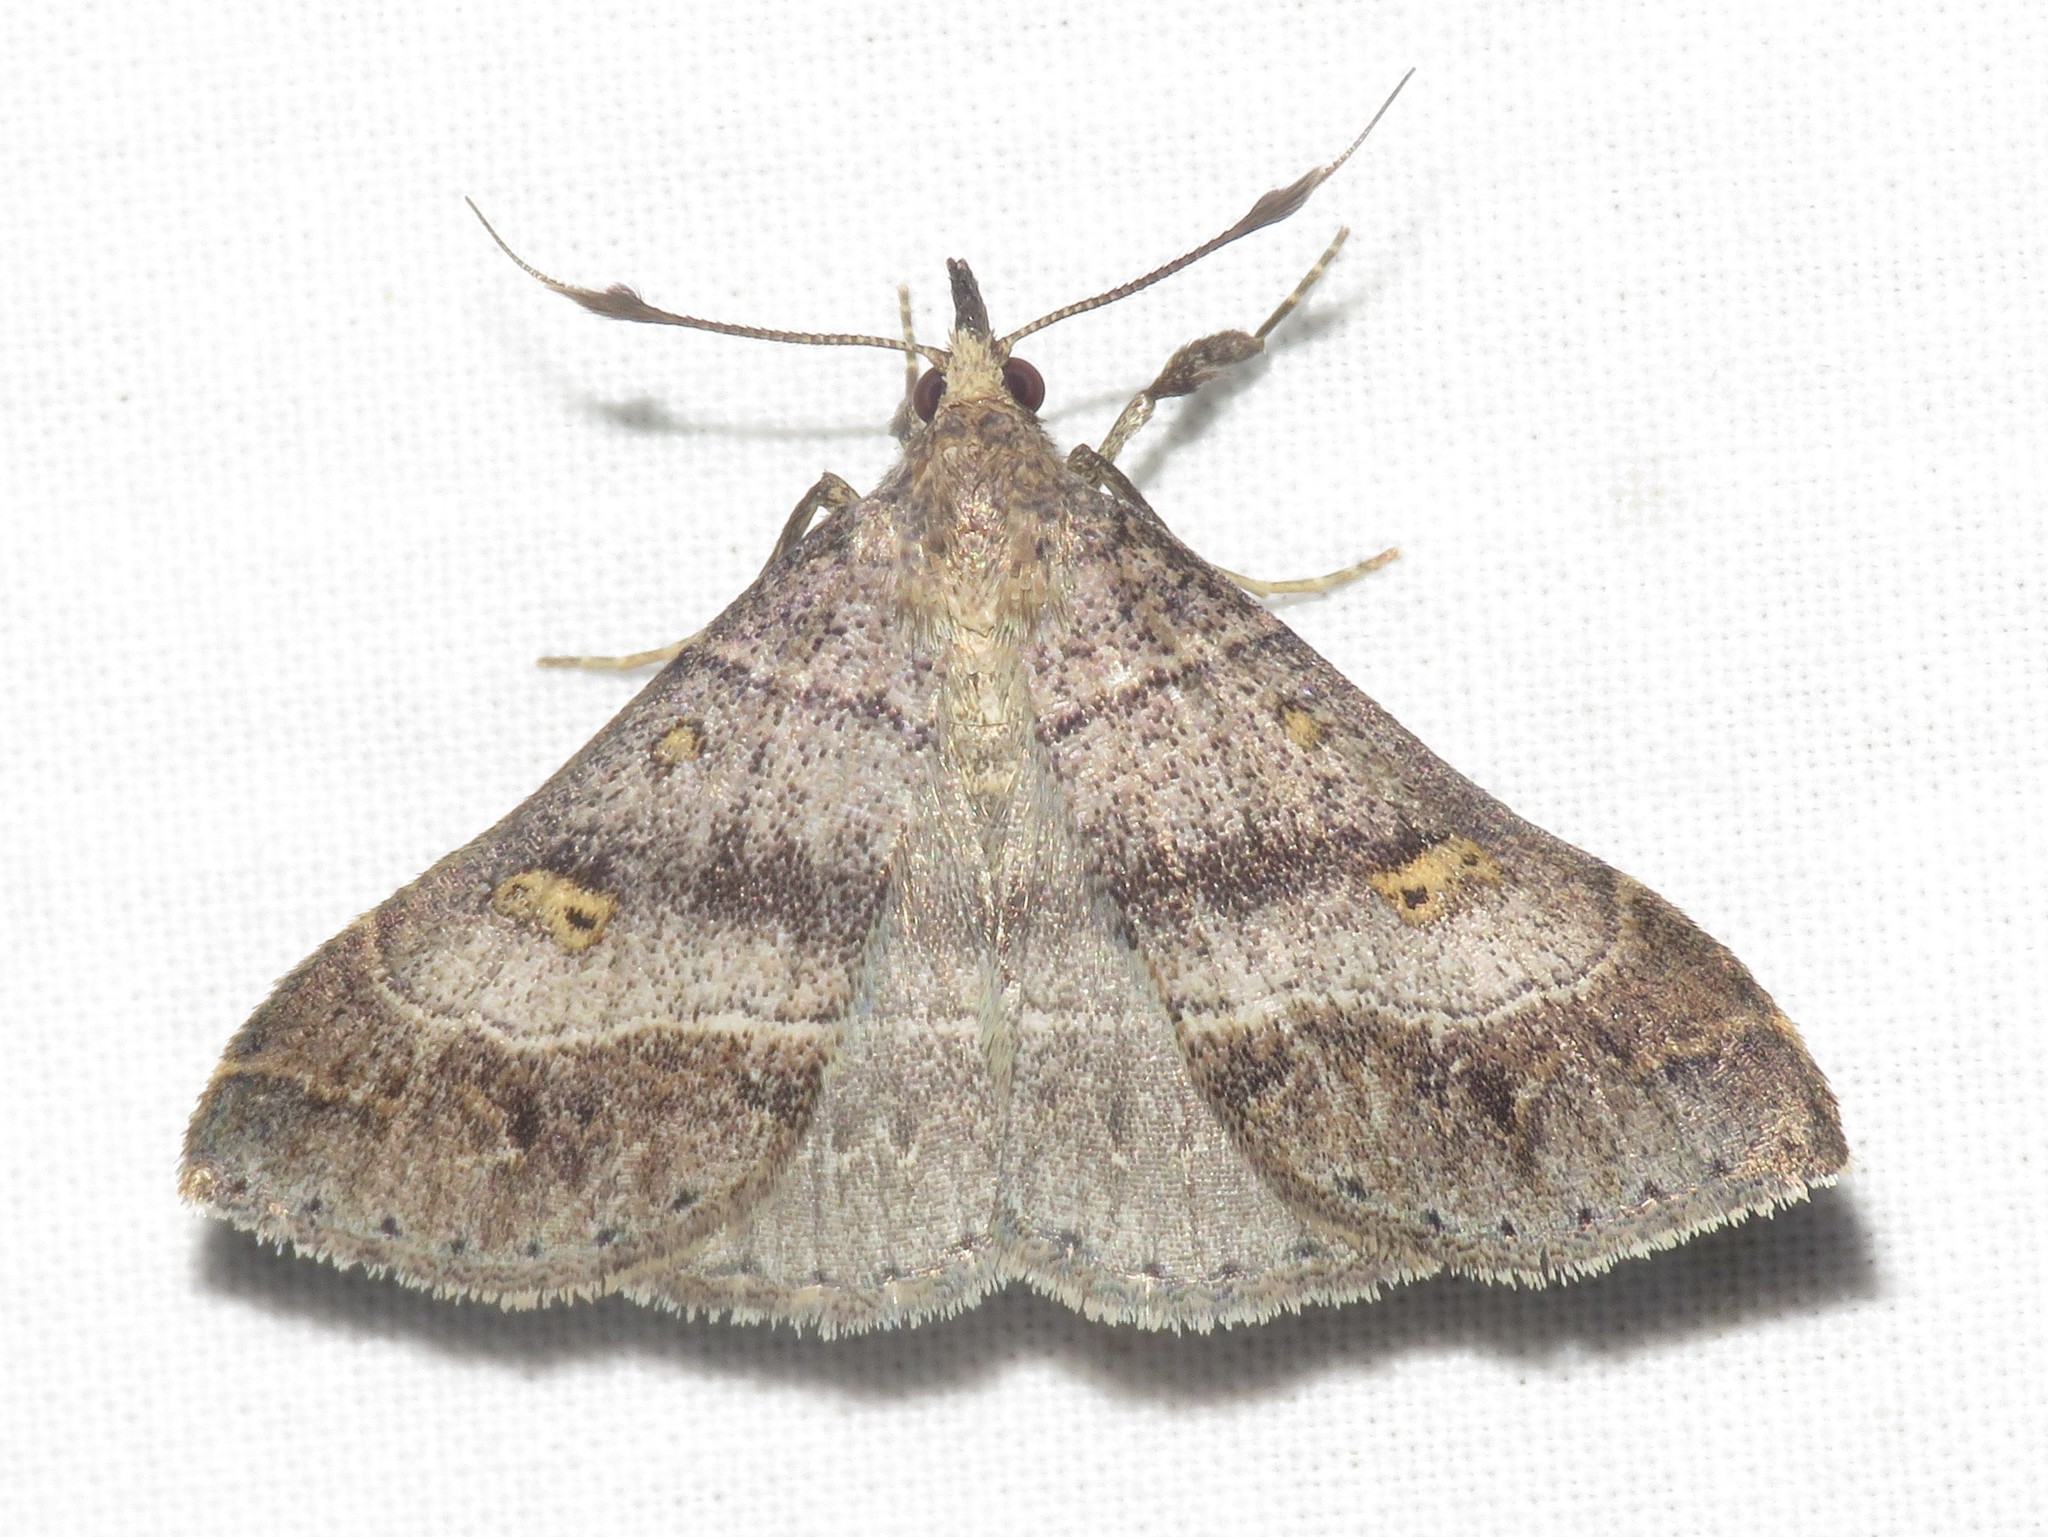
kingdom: Animalia
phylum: Arthropoda
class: Insecta
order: Lepidoptera
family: Erebidae
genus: Renia
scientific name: Renia flavipunctalis
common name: Yellow-spotted renia moth
